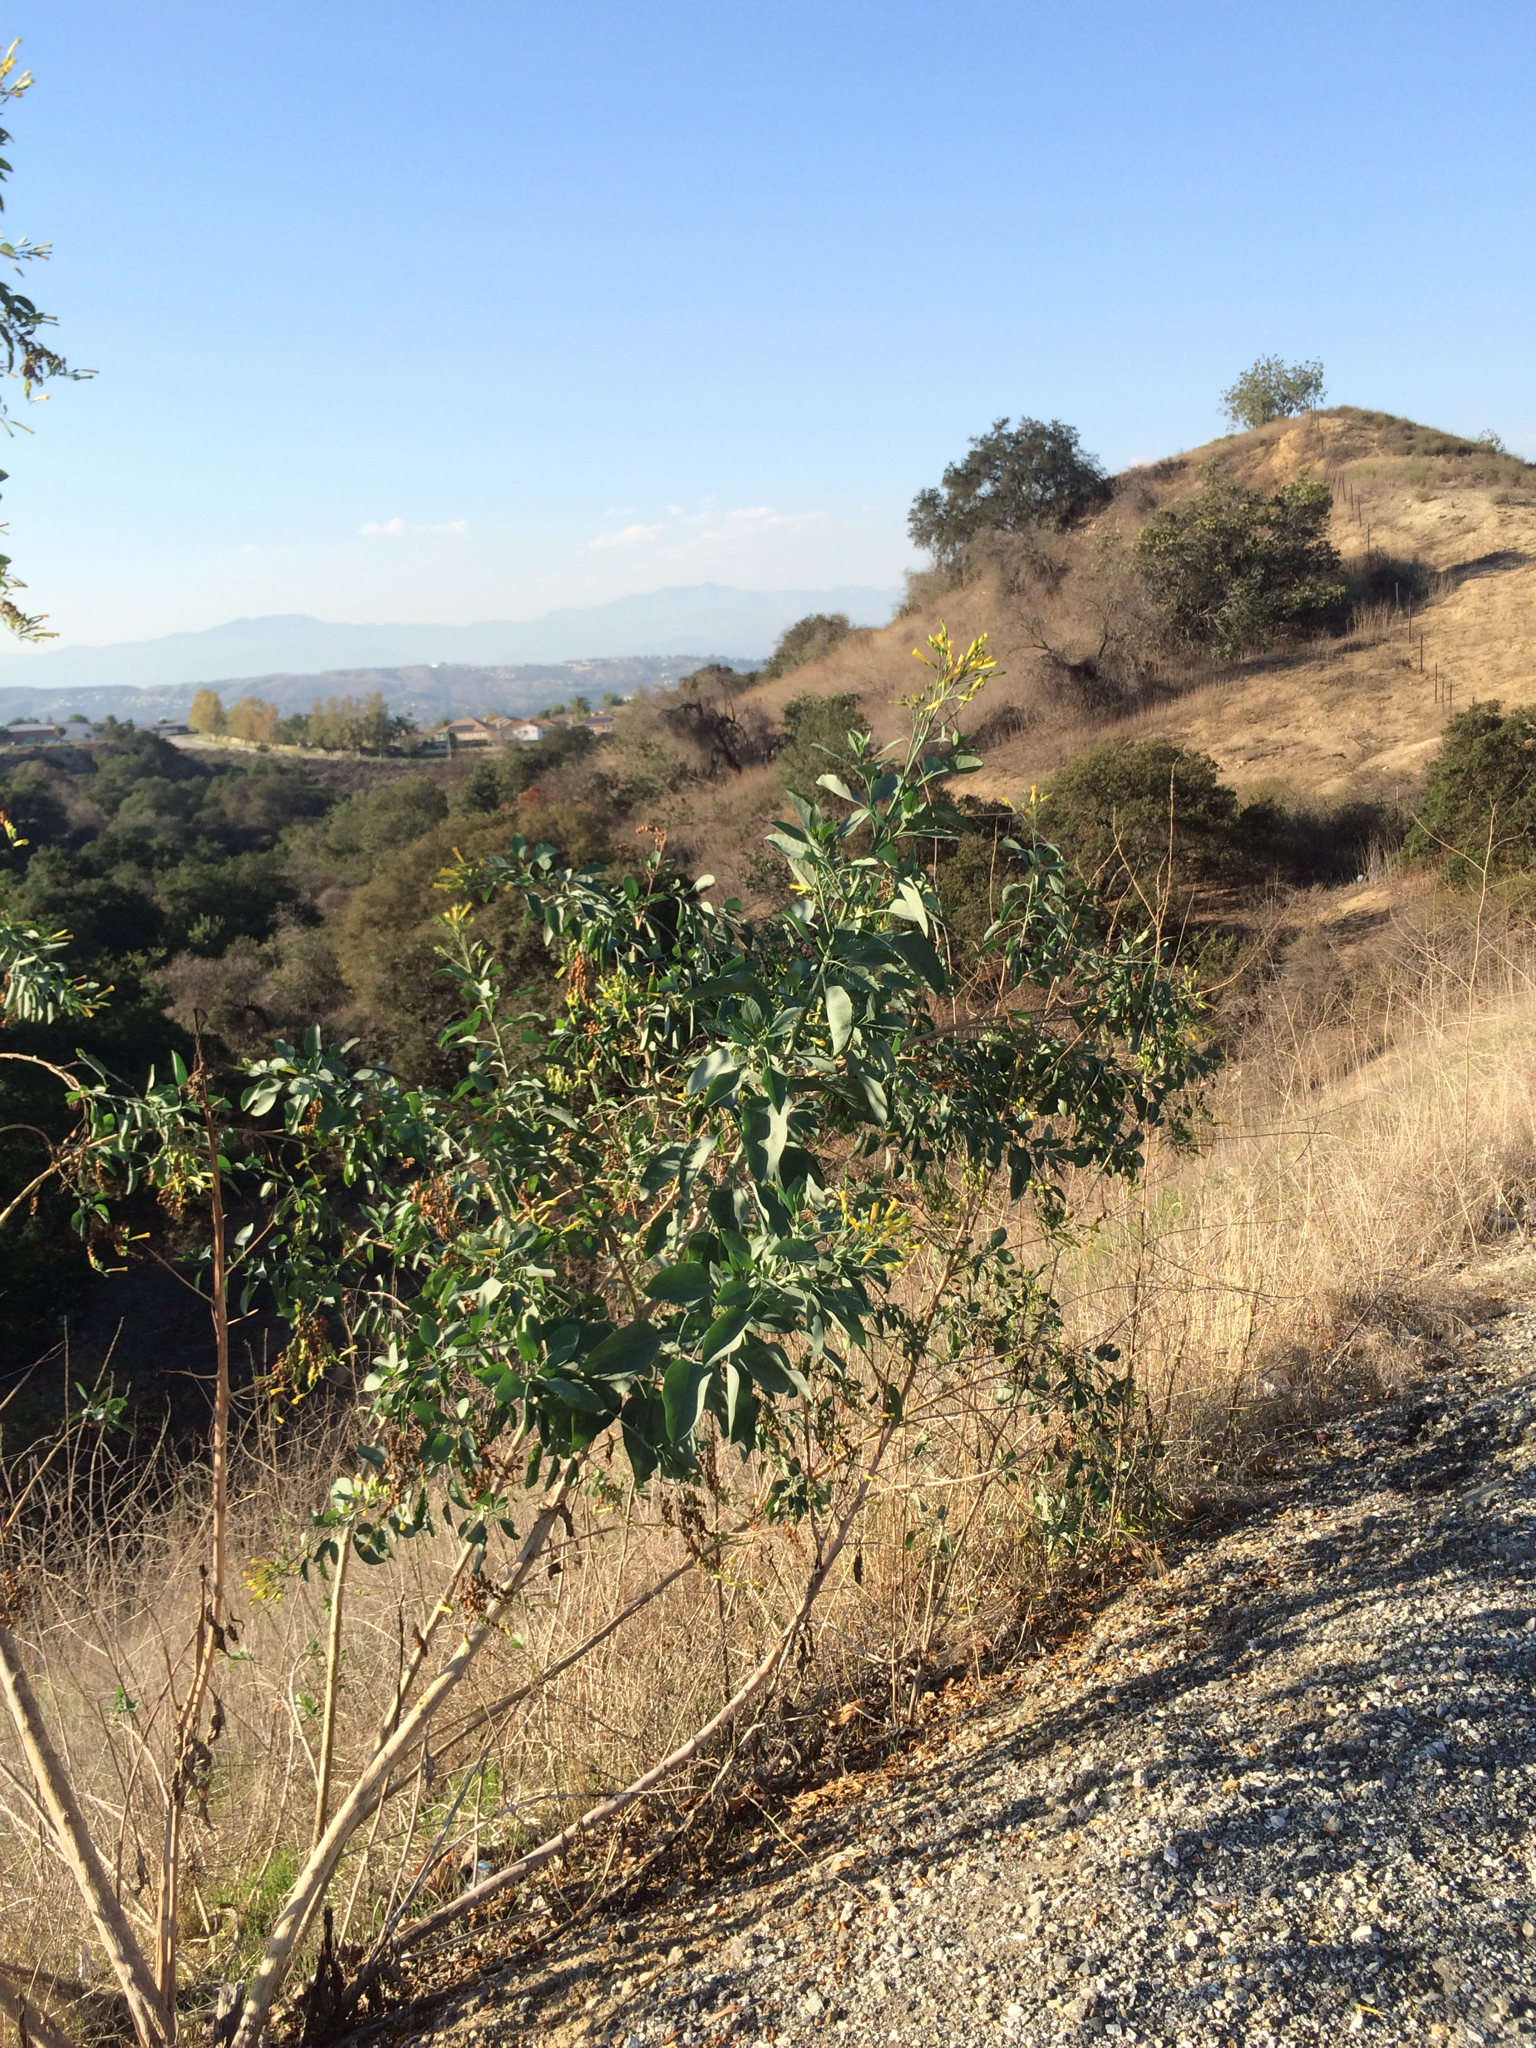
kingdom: Plantae
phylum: Tracheophyta
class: Magnoliopsida
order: Solanales
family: Solanaceae
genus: Nicotiana
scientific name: Nicotiana glauca
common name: Tree tobacco
